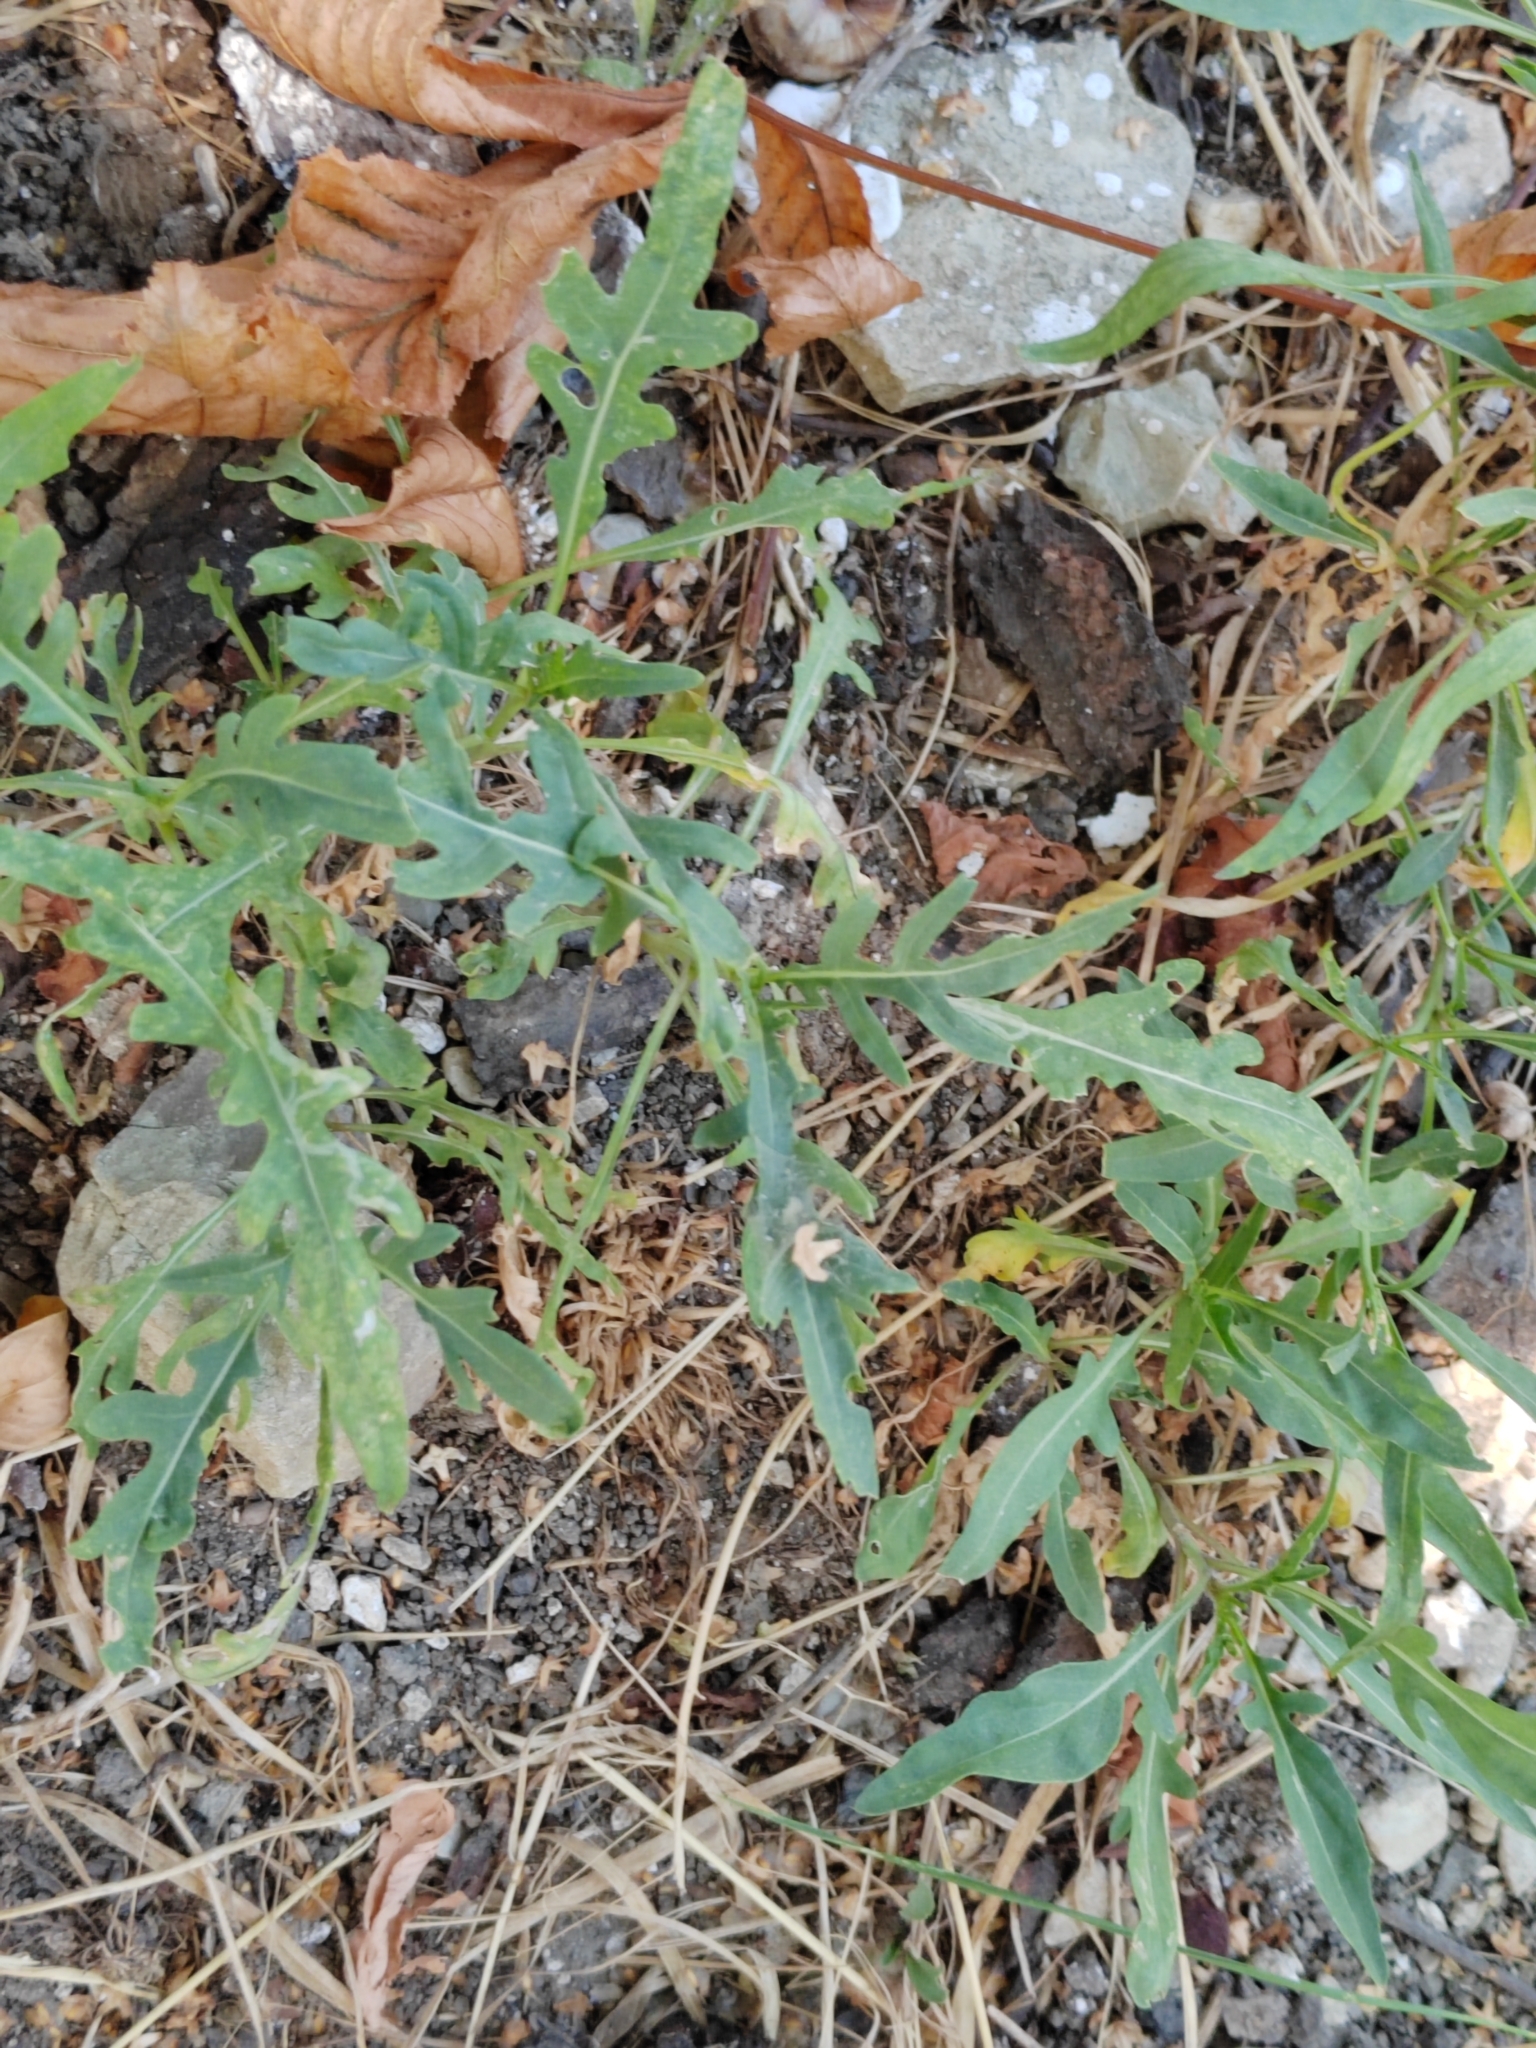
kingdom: Plantae
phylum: Tracheophyta
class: Magnoliopsida
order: Brassicales
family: Brassicaceae
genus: Diplotaxis
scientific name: Diplotaxis tenuifolia
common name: Perennial wall-rocket
